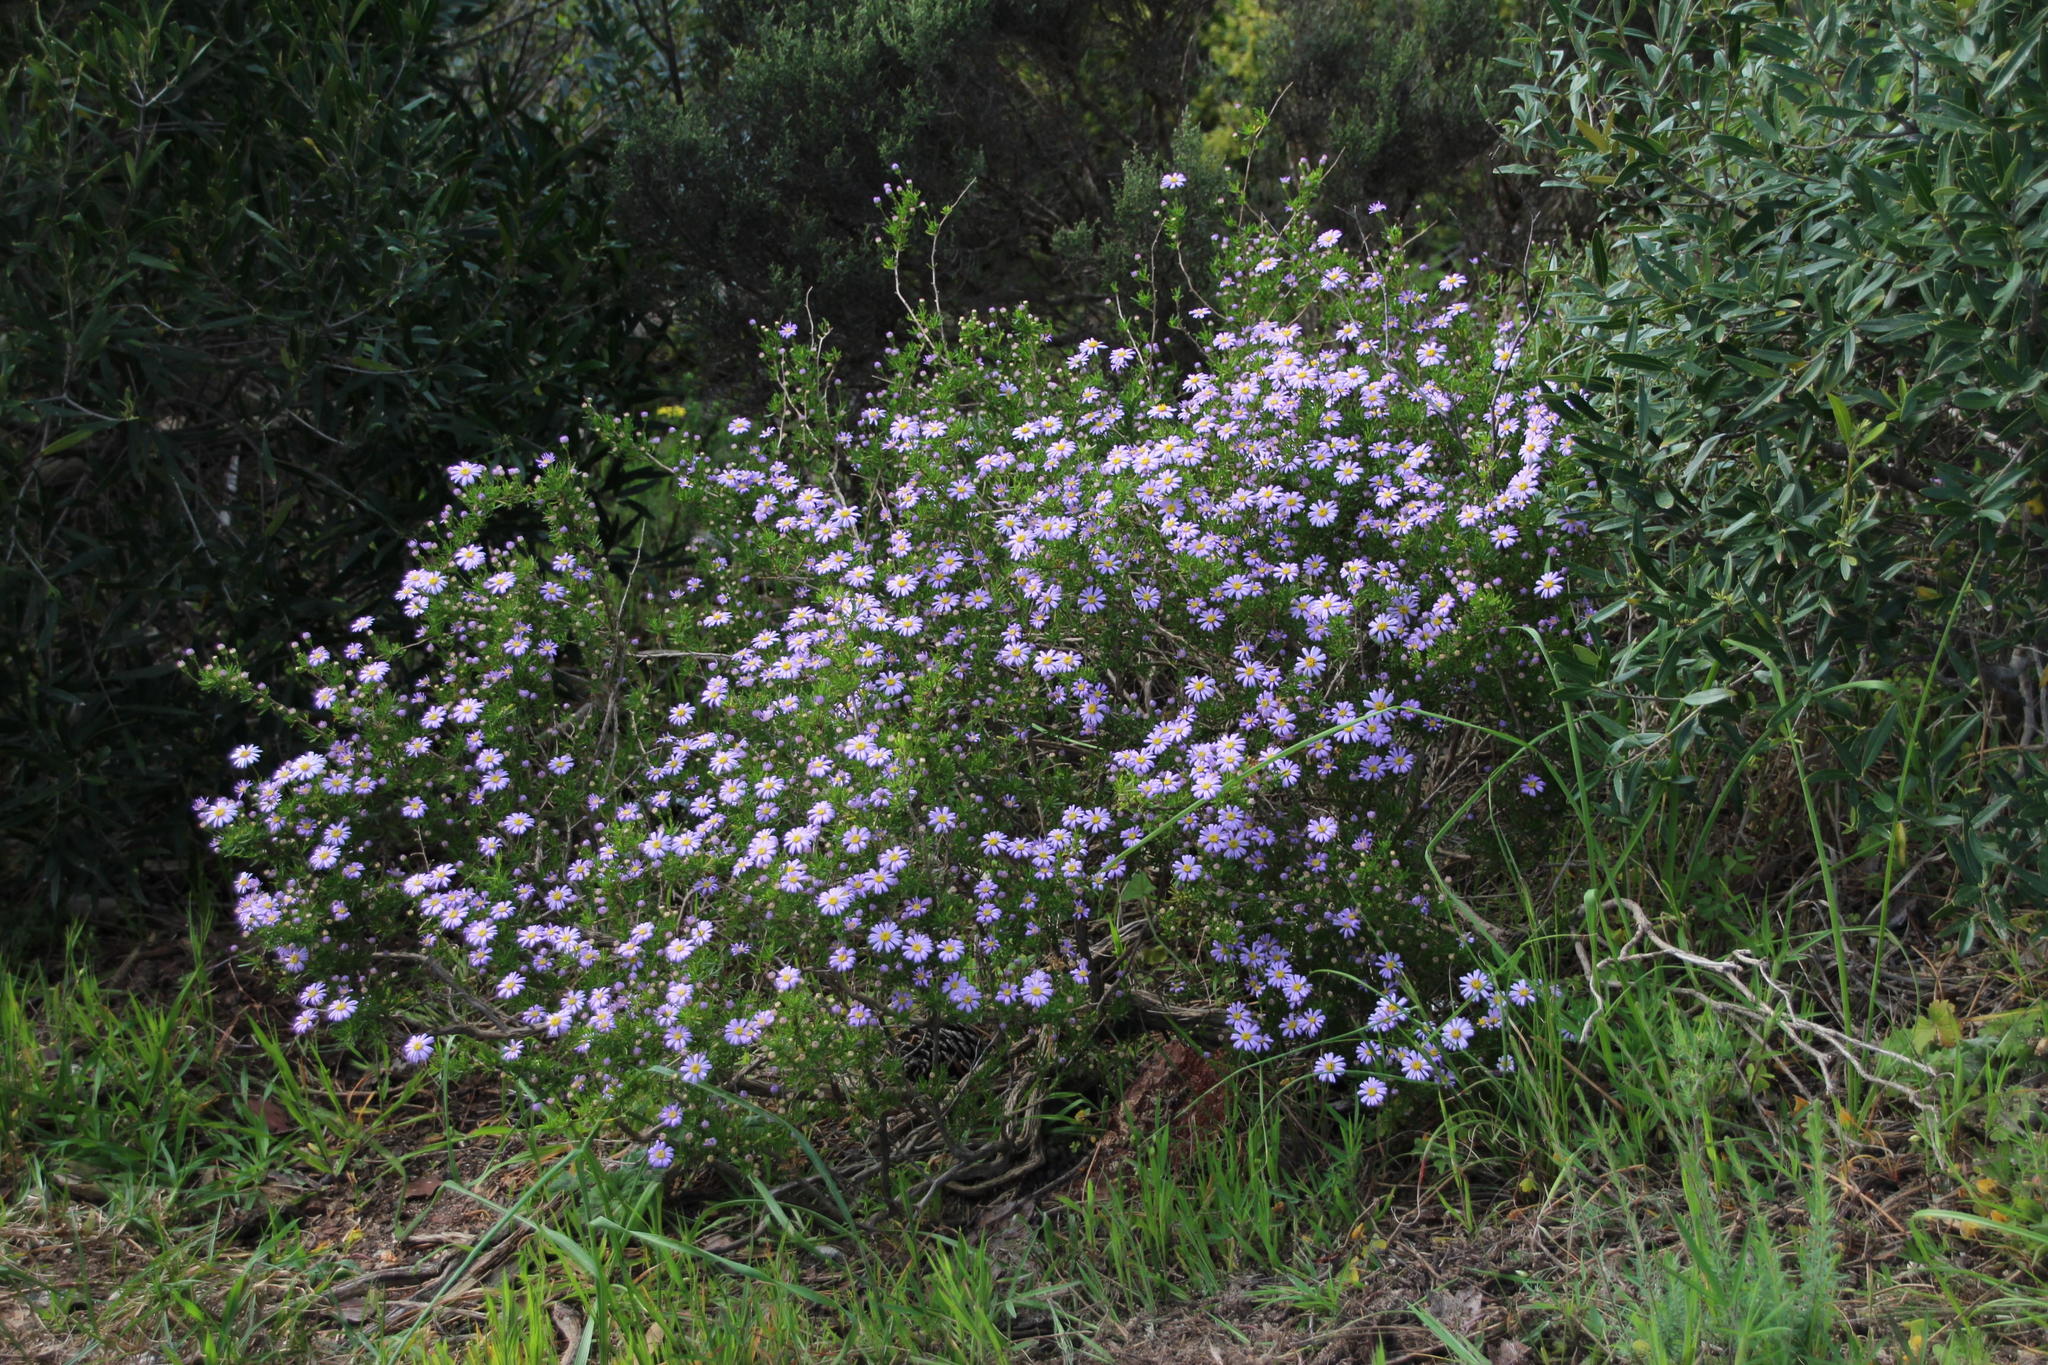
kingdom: Plantae
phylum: Tracheophyta
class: Magnoliopsida
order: Asterales
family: Asteraceae
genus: Felicia
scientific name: Felicia fruticosa
